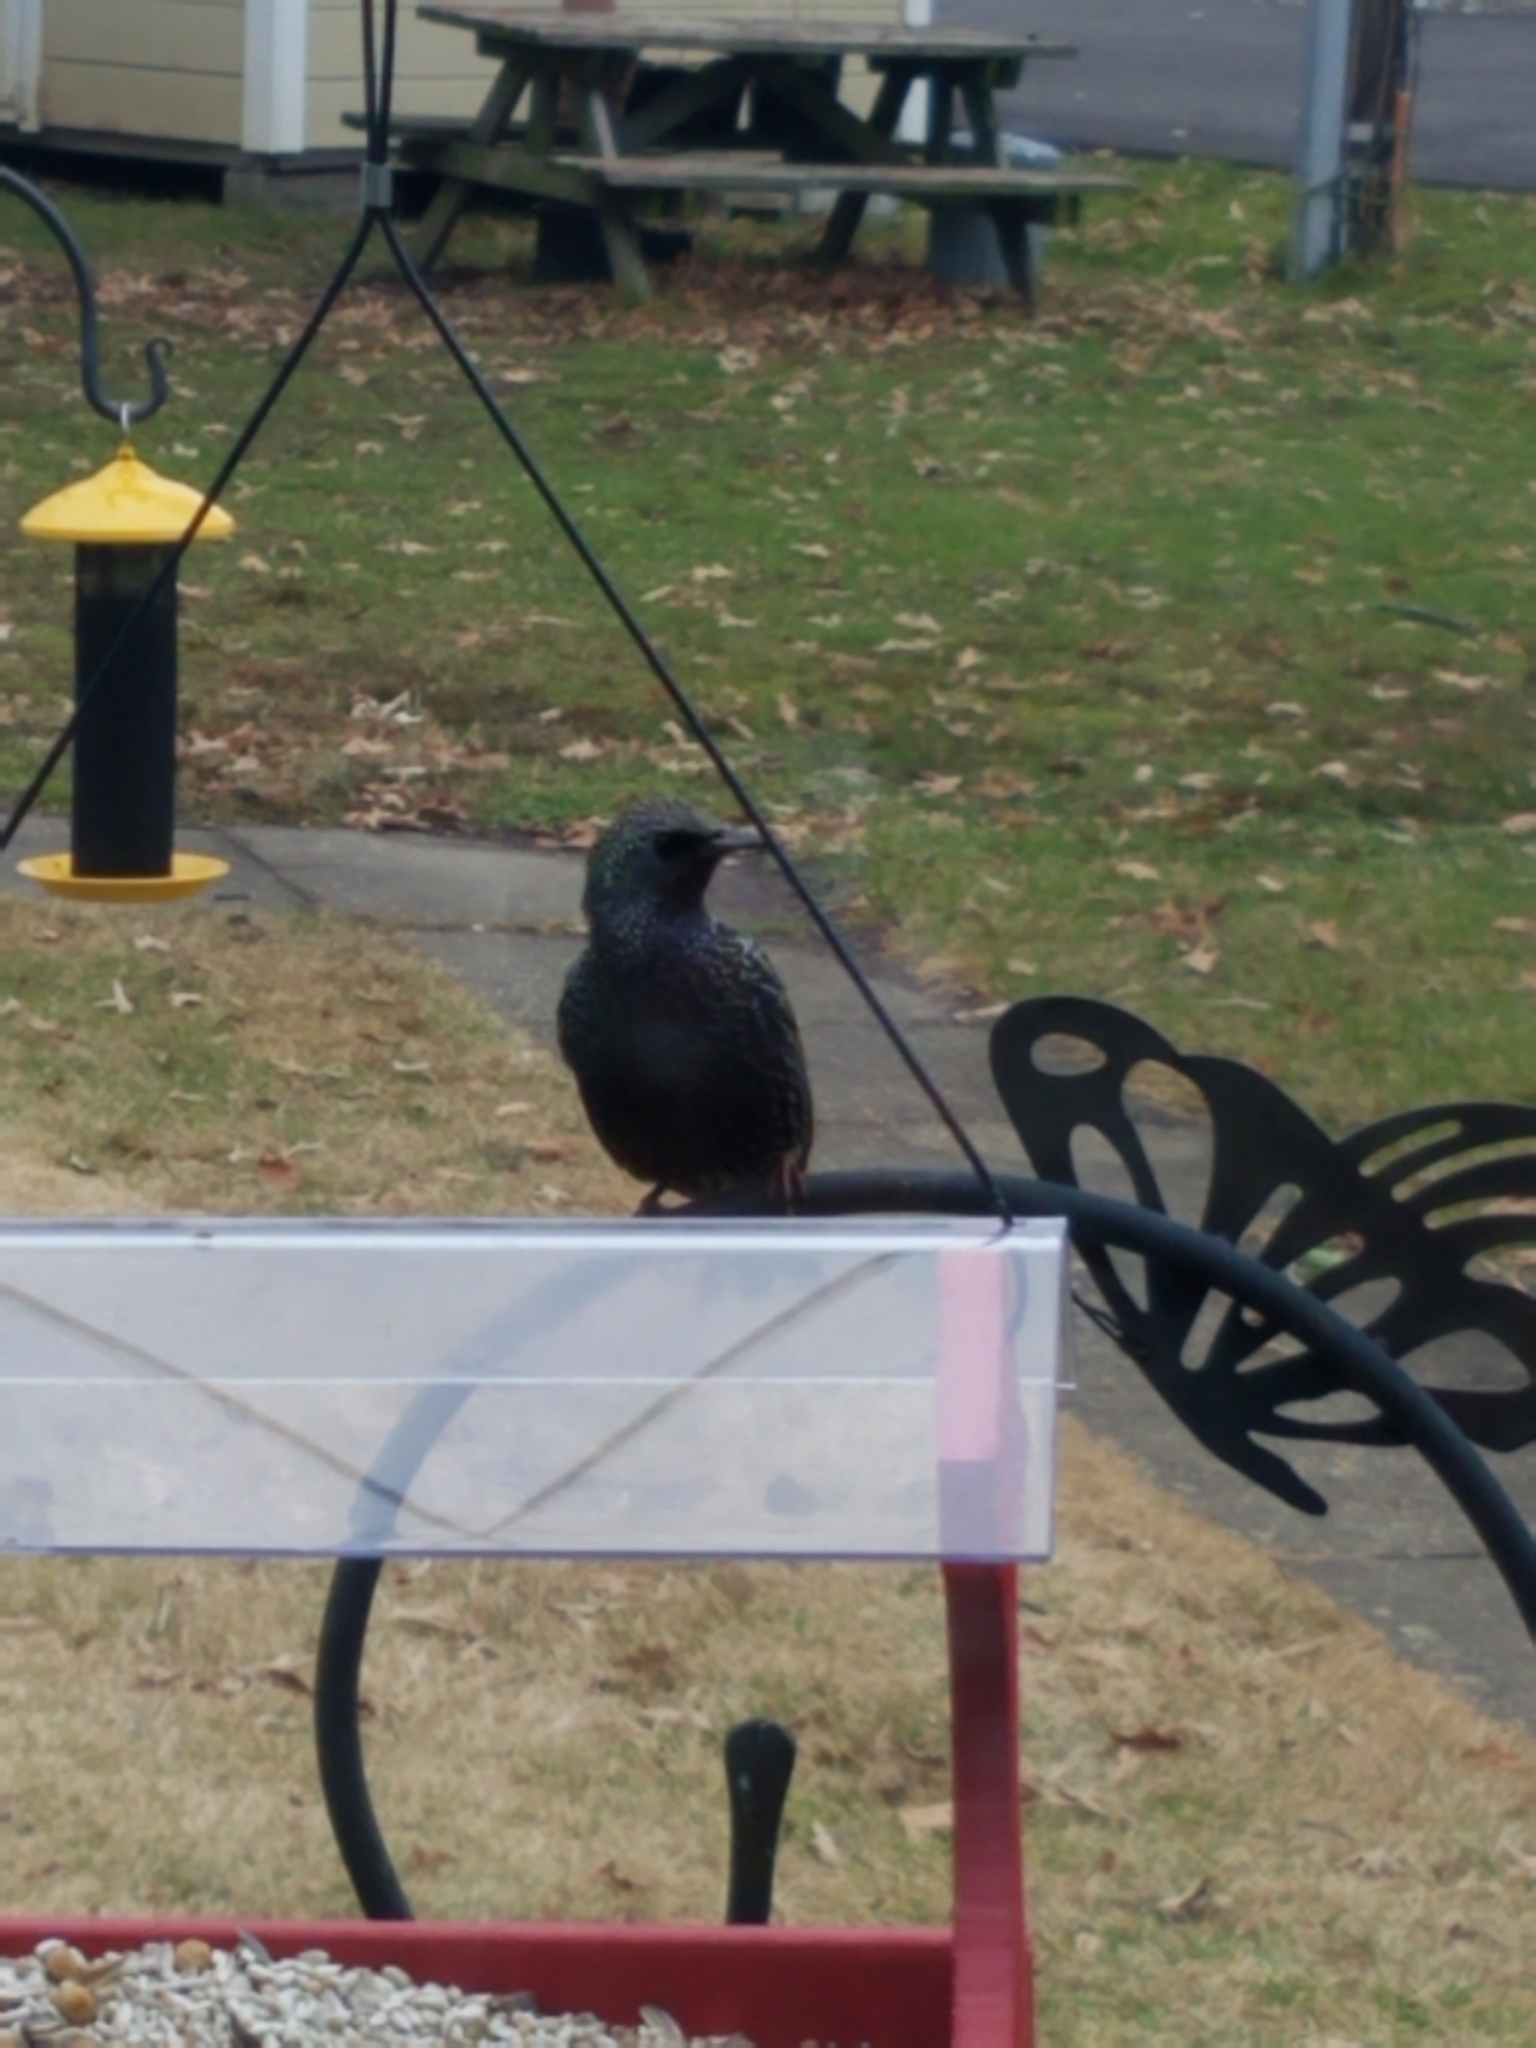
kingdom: Animalia
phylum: Chordata
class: Aves
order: Passeriformes
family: Sturnidae
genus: Sturnus
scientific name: Sturnus vulgaris
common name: Common starling
